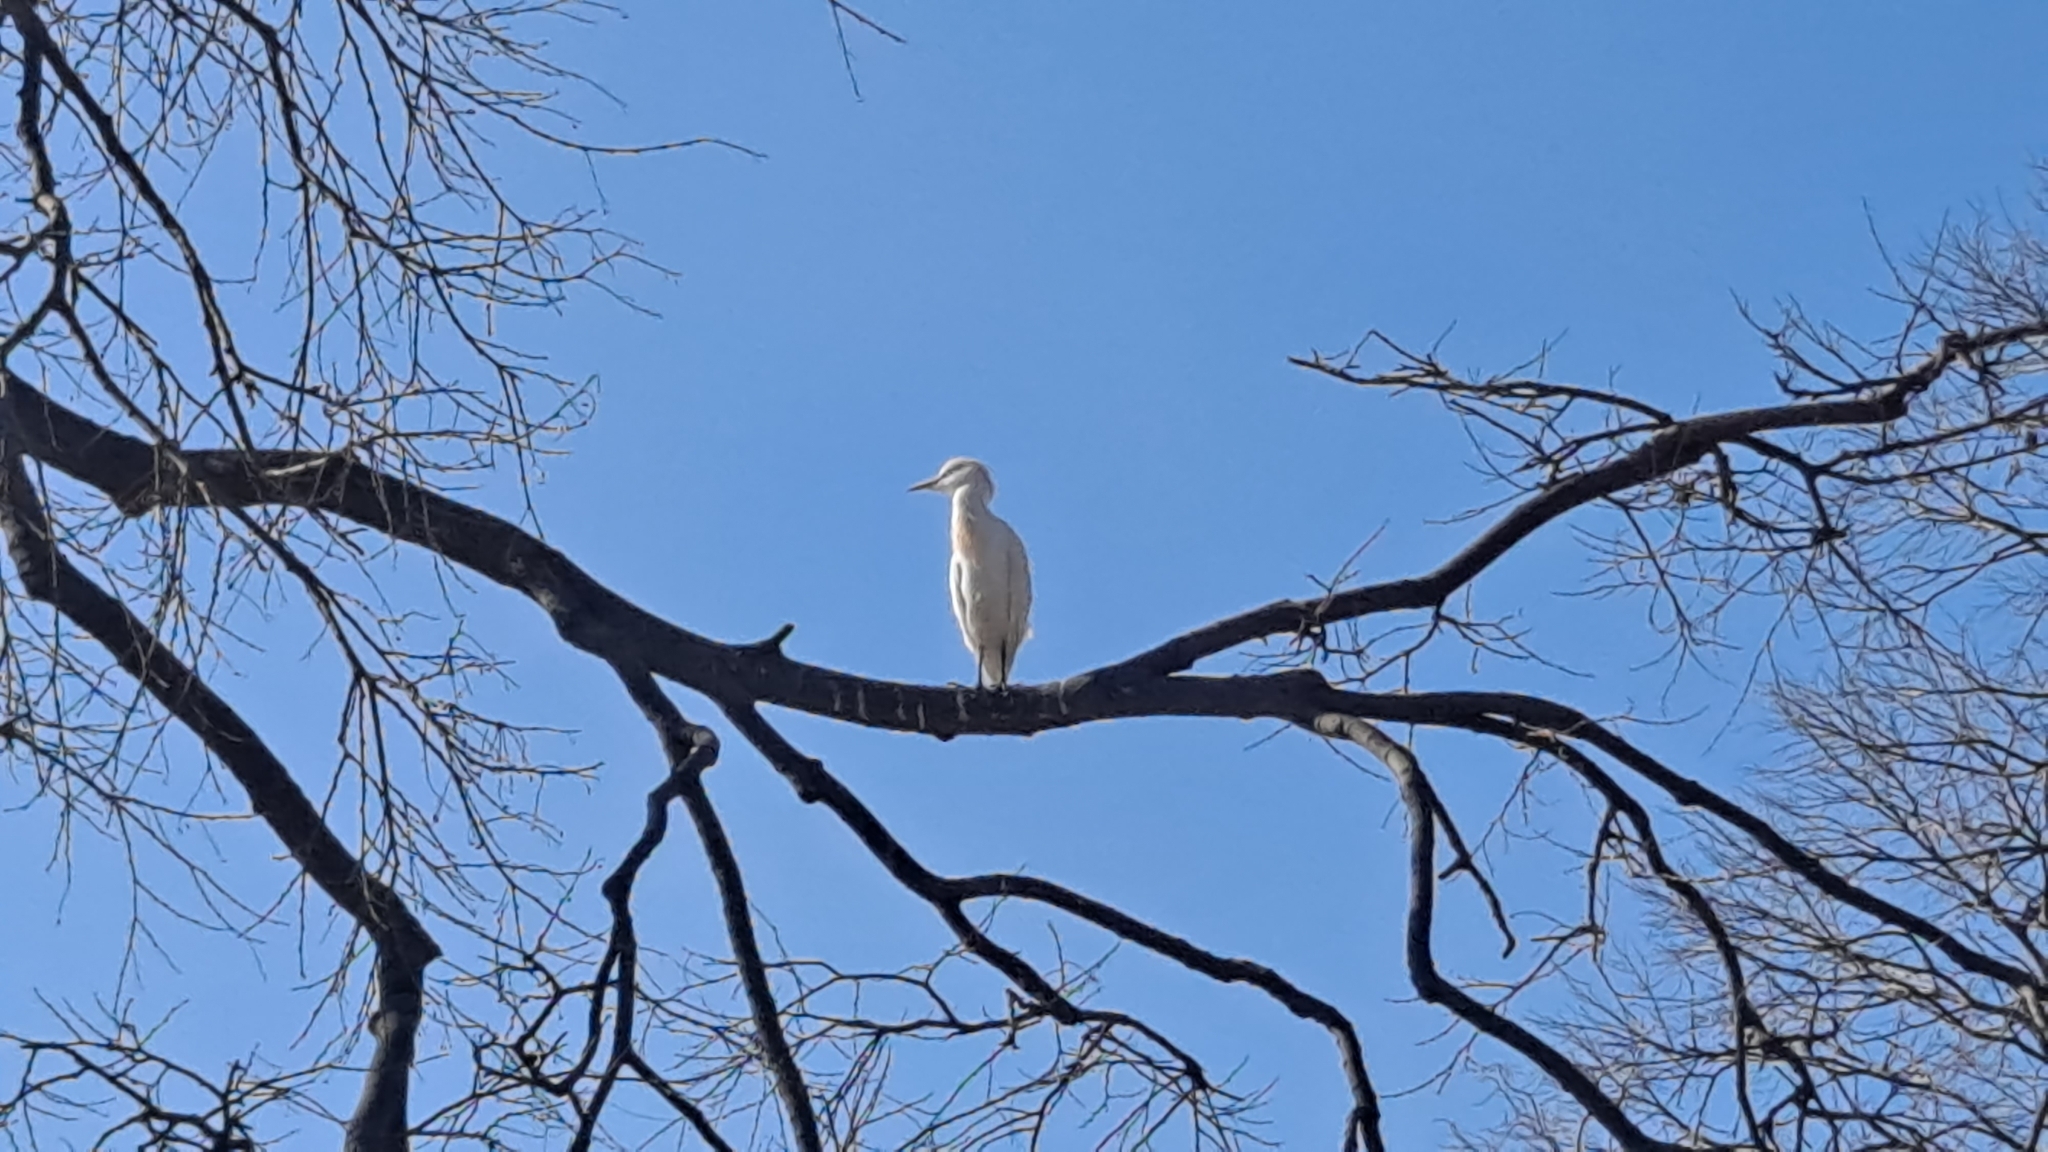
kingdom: Animalia
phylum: Chordata
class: Aves
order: Pelecaniformes
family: Ardeidae
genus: Bubulcus
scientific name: Bubulcus ibis
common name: Cattle egret
